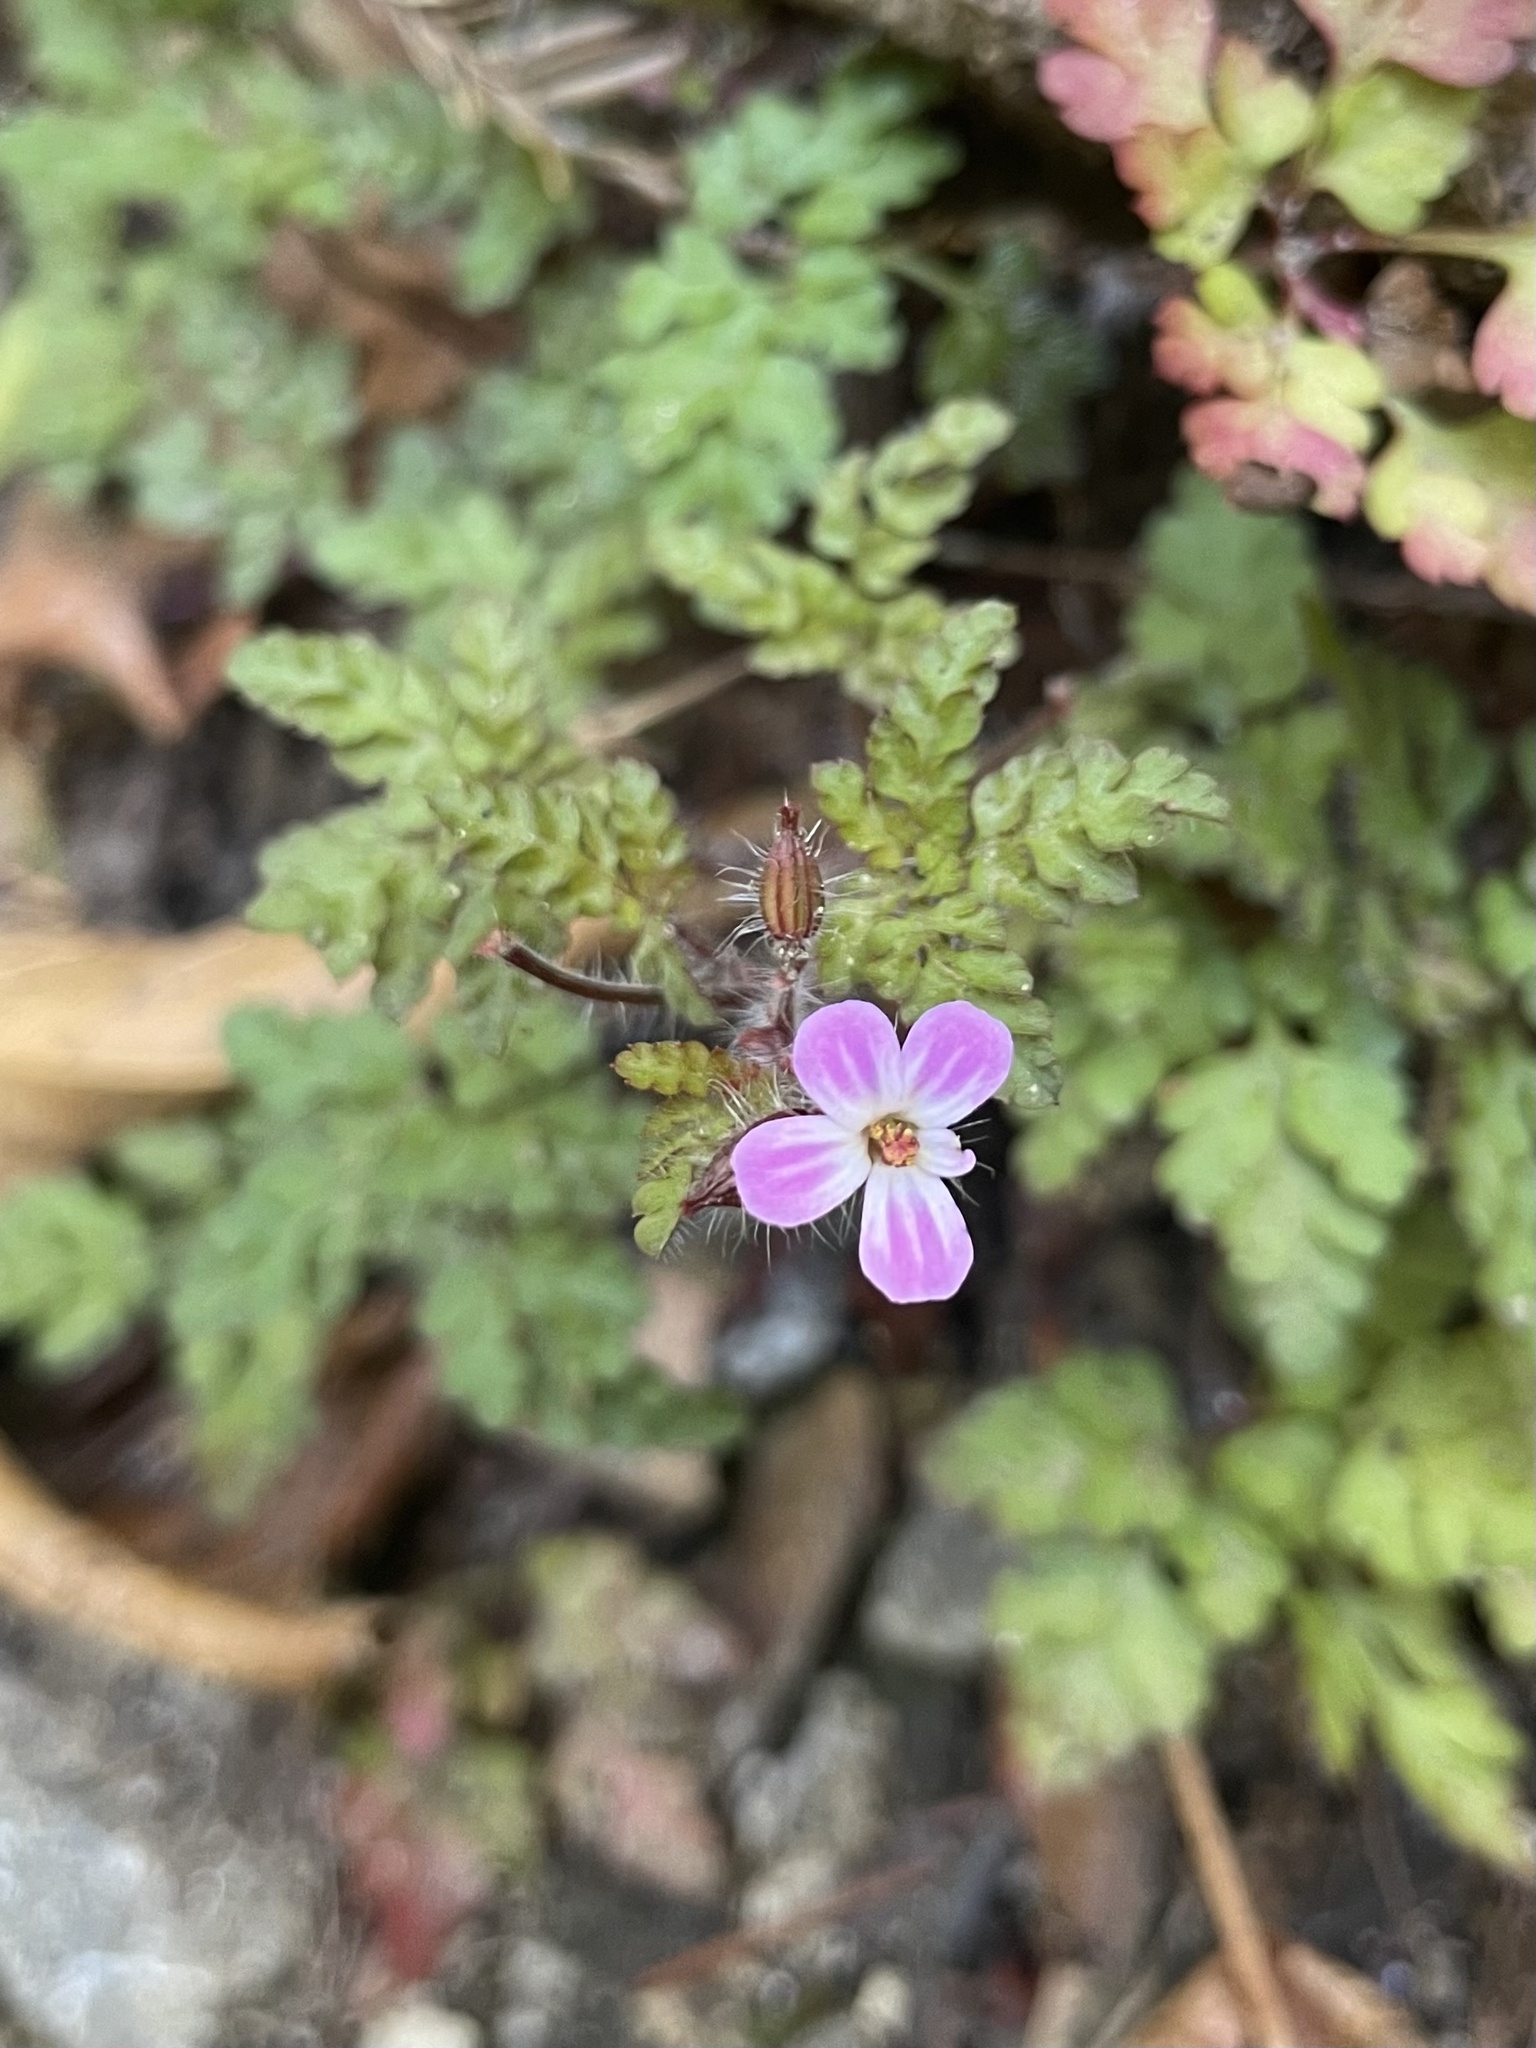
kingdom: Plantae
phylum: Tracheophyta
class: Magnoliopsida
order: Geraniales
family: Geraniaceae
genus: Geranium
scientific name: Geranium robertianum
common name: Herb-robert
